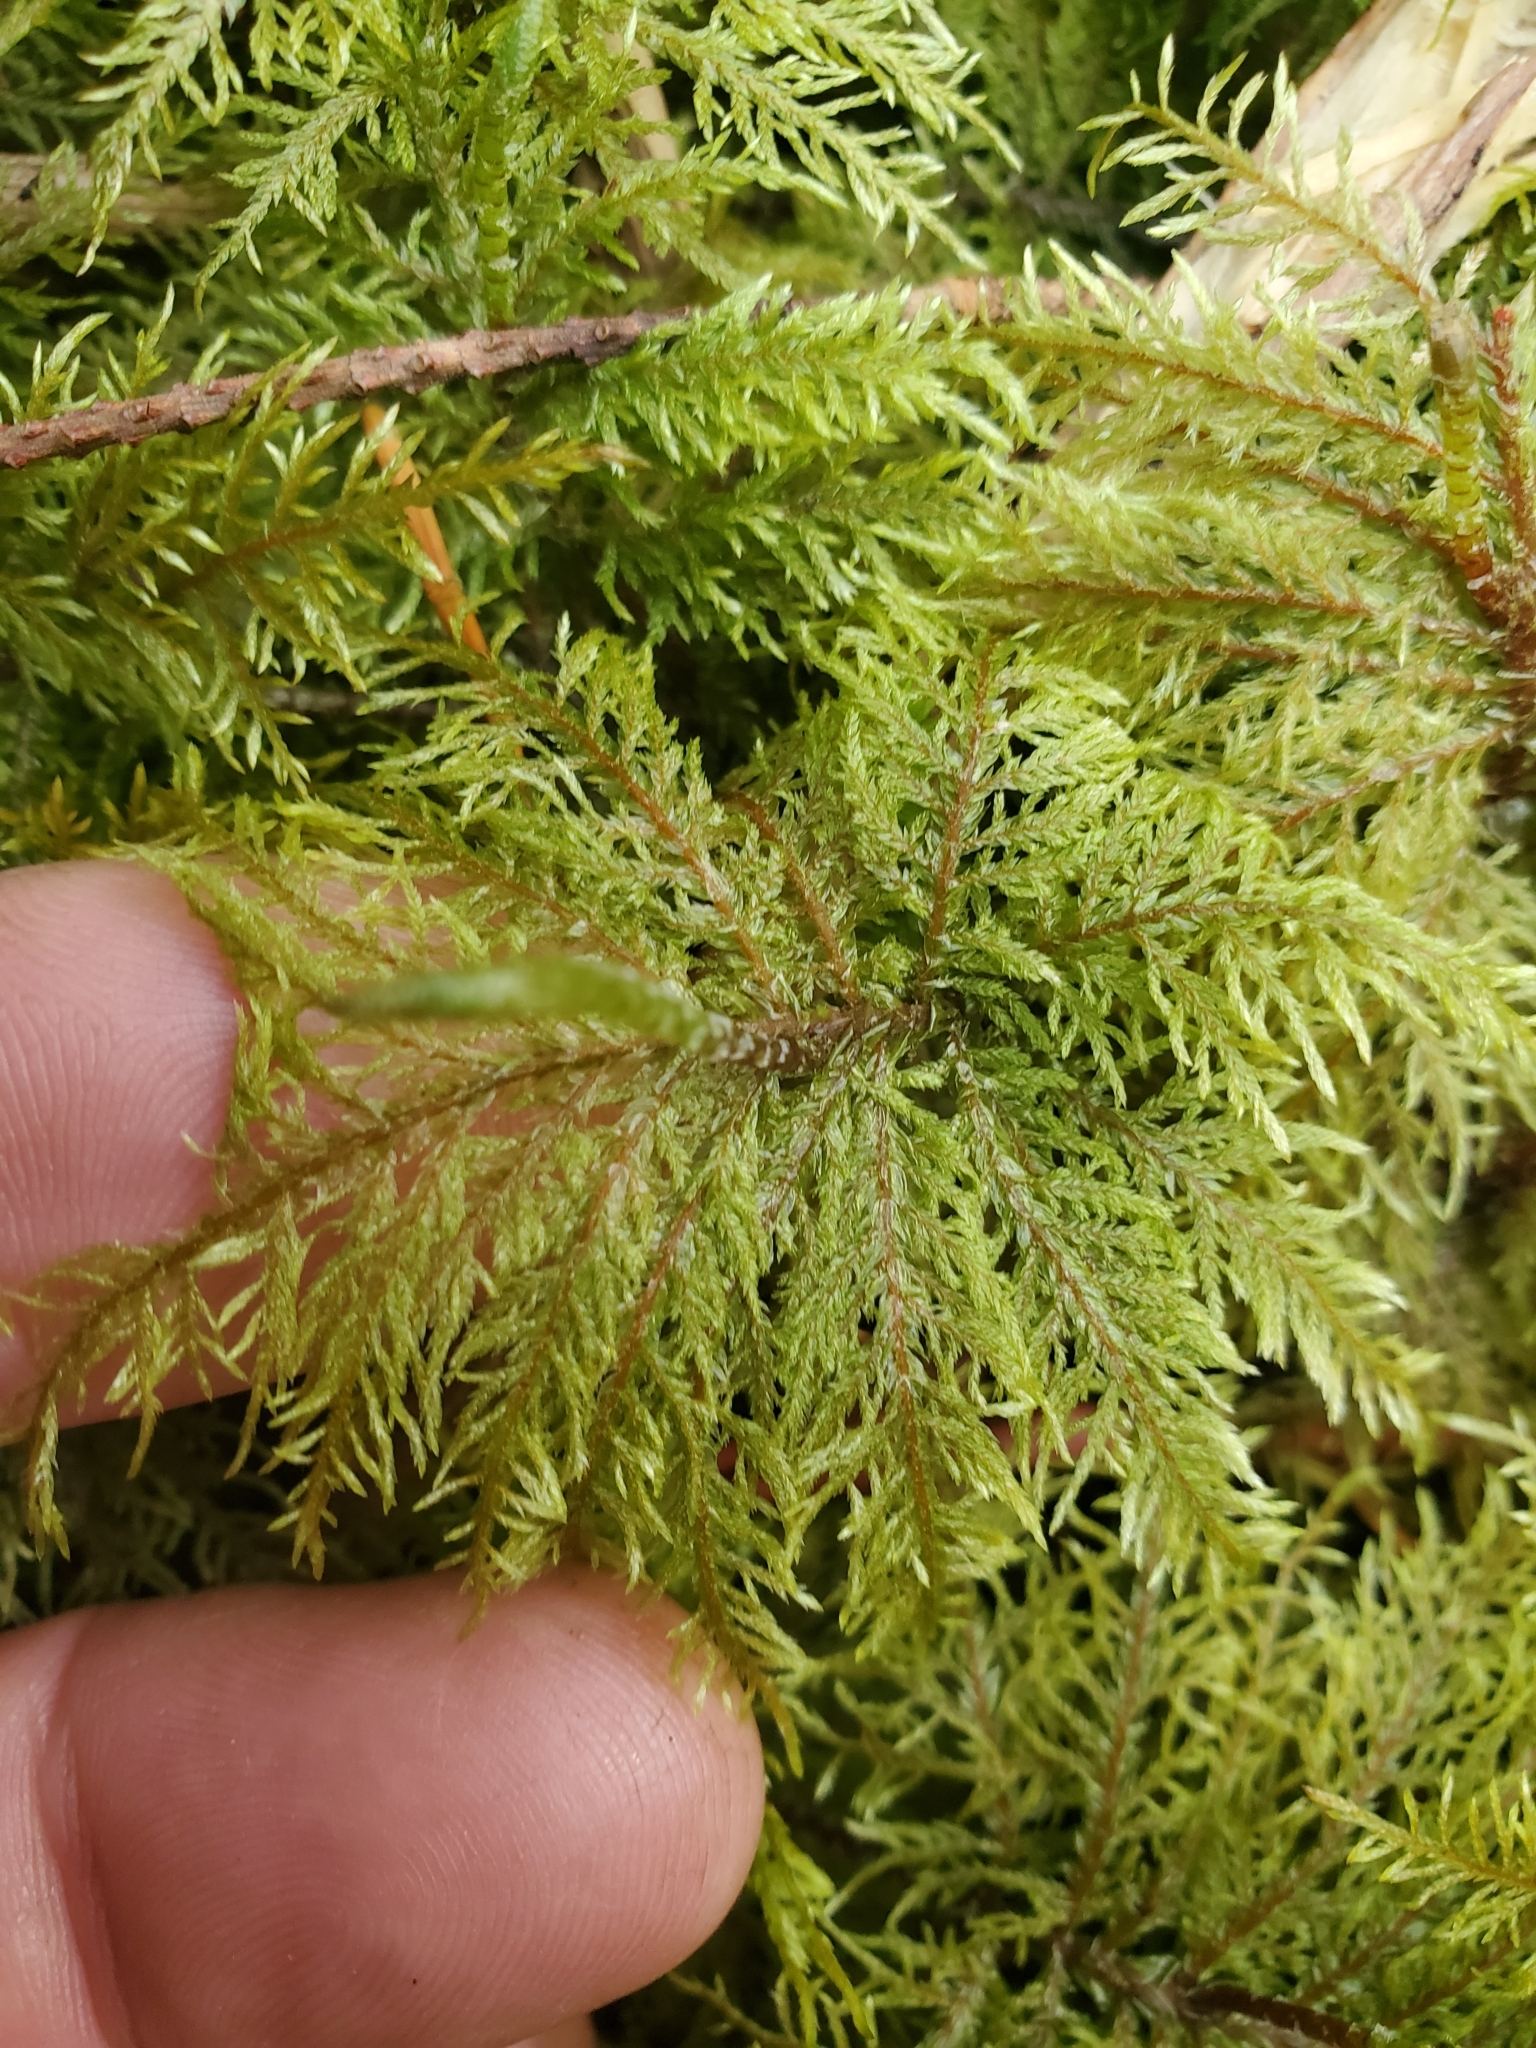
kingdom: Plantae
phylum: Bryophyta
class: Bryopsida
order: Hypnales
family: Hylocomiaceae
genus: Hylocomium
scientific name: Hylocomium splendens
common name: Stairstep moss
